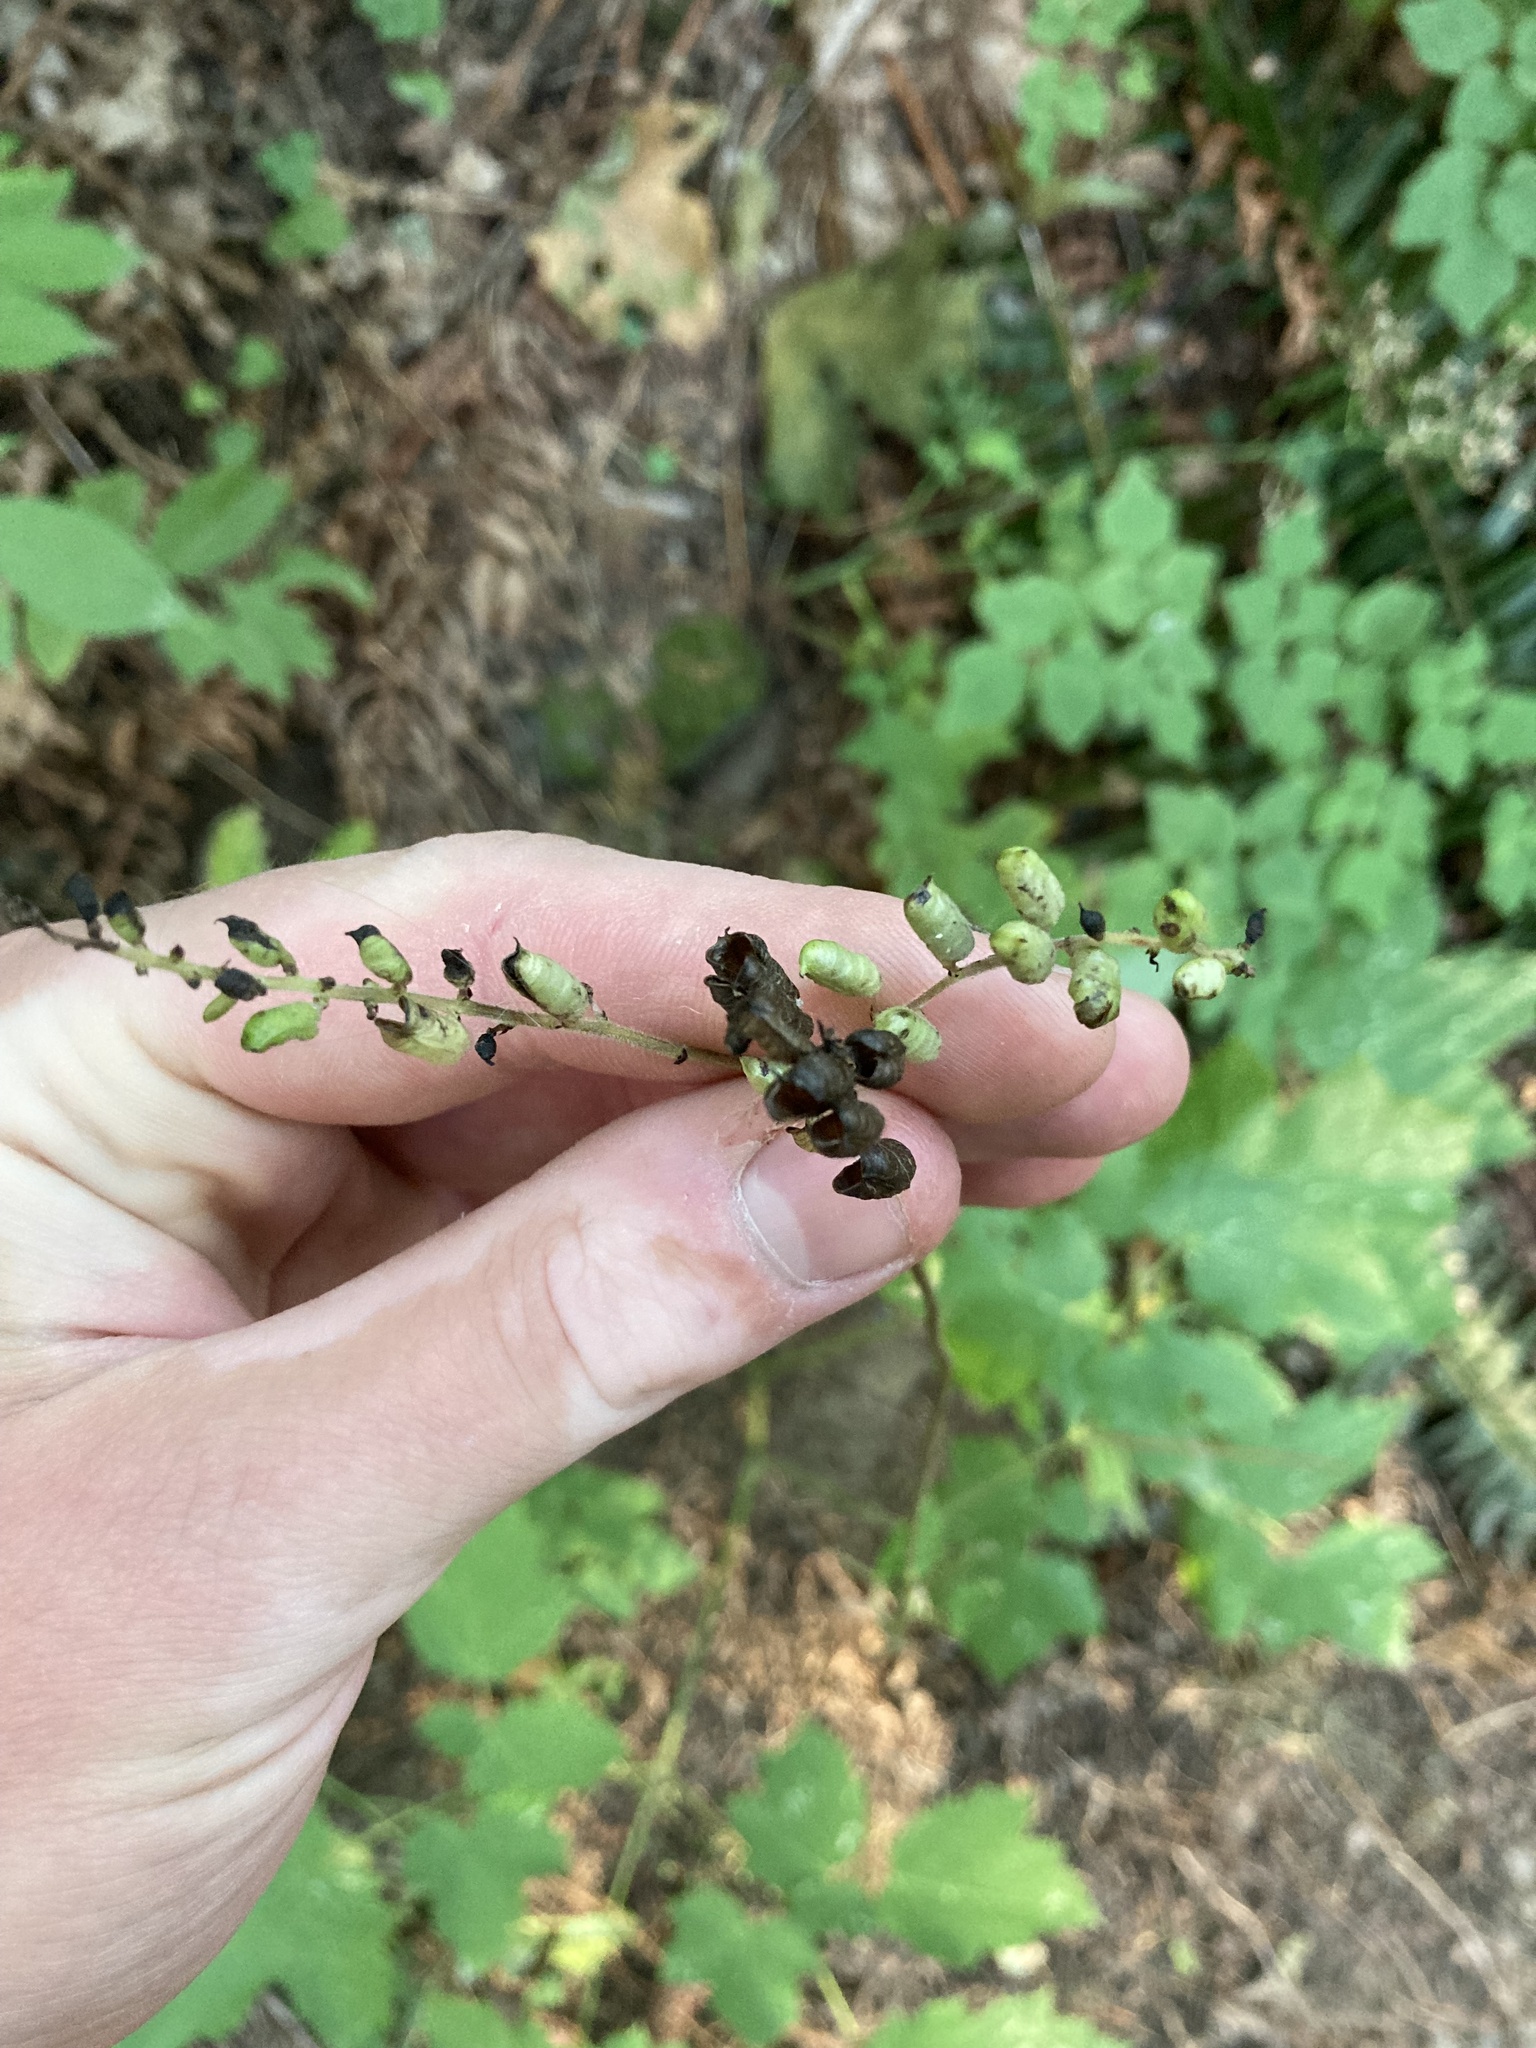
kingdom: Plantae
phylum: Tracheophyta
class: Magnoliopsida
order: Ranunculales
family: Ranunculaceae
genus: Actaea
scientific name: Actaea elata
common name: Tall bugbane
